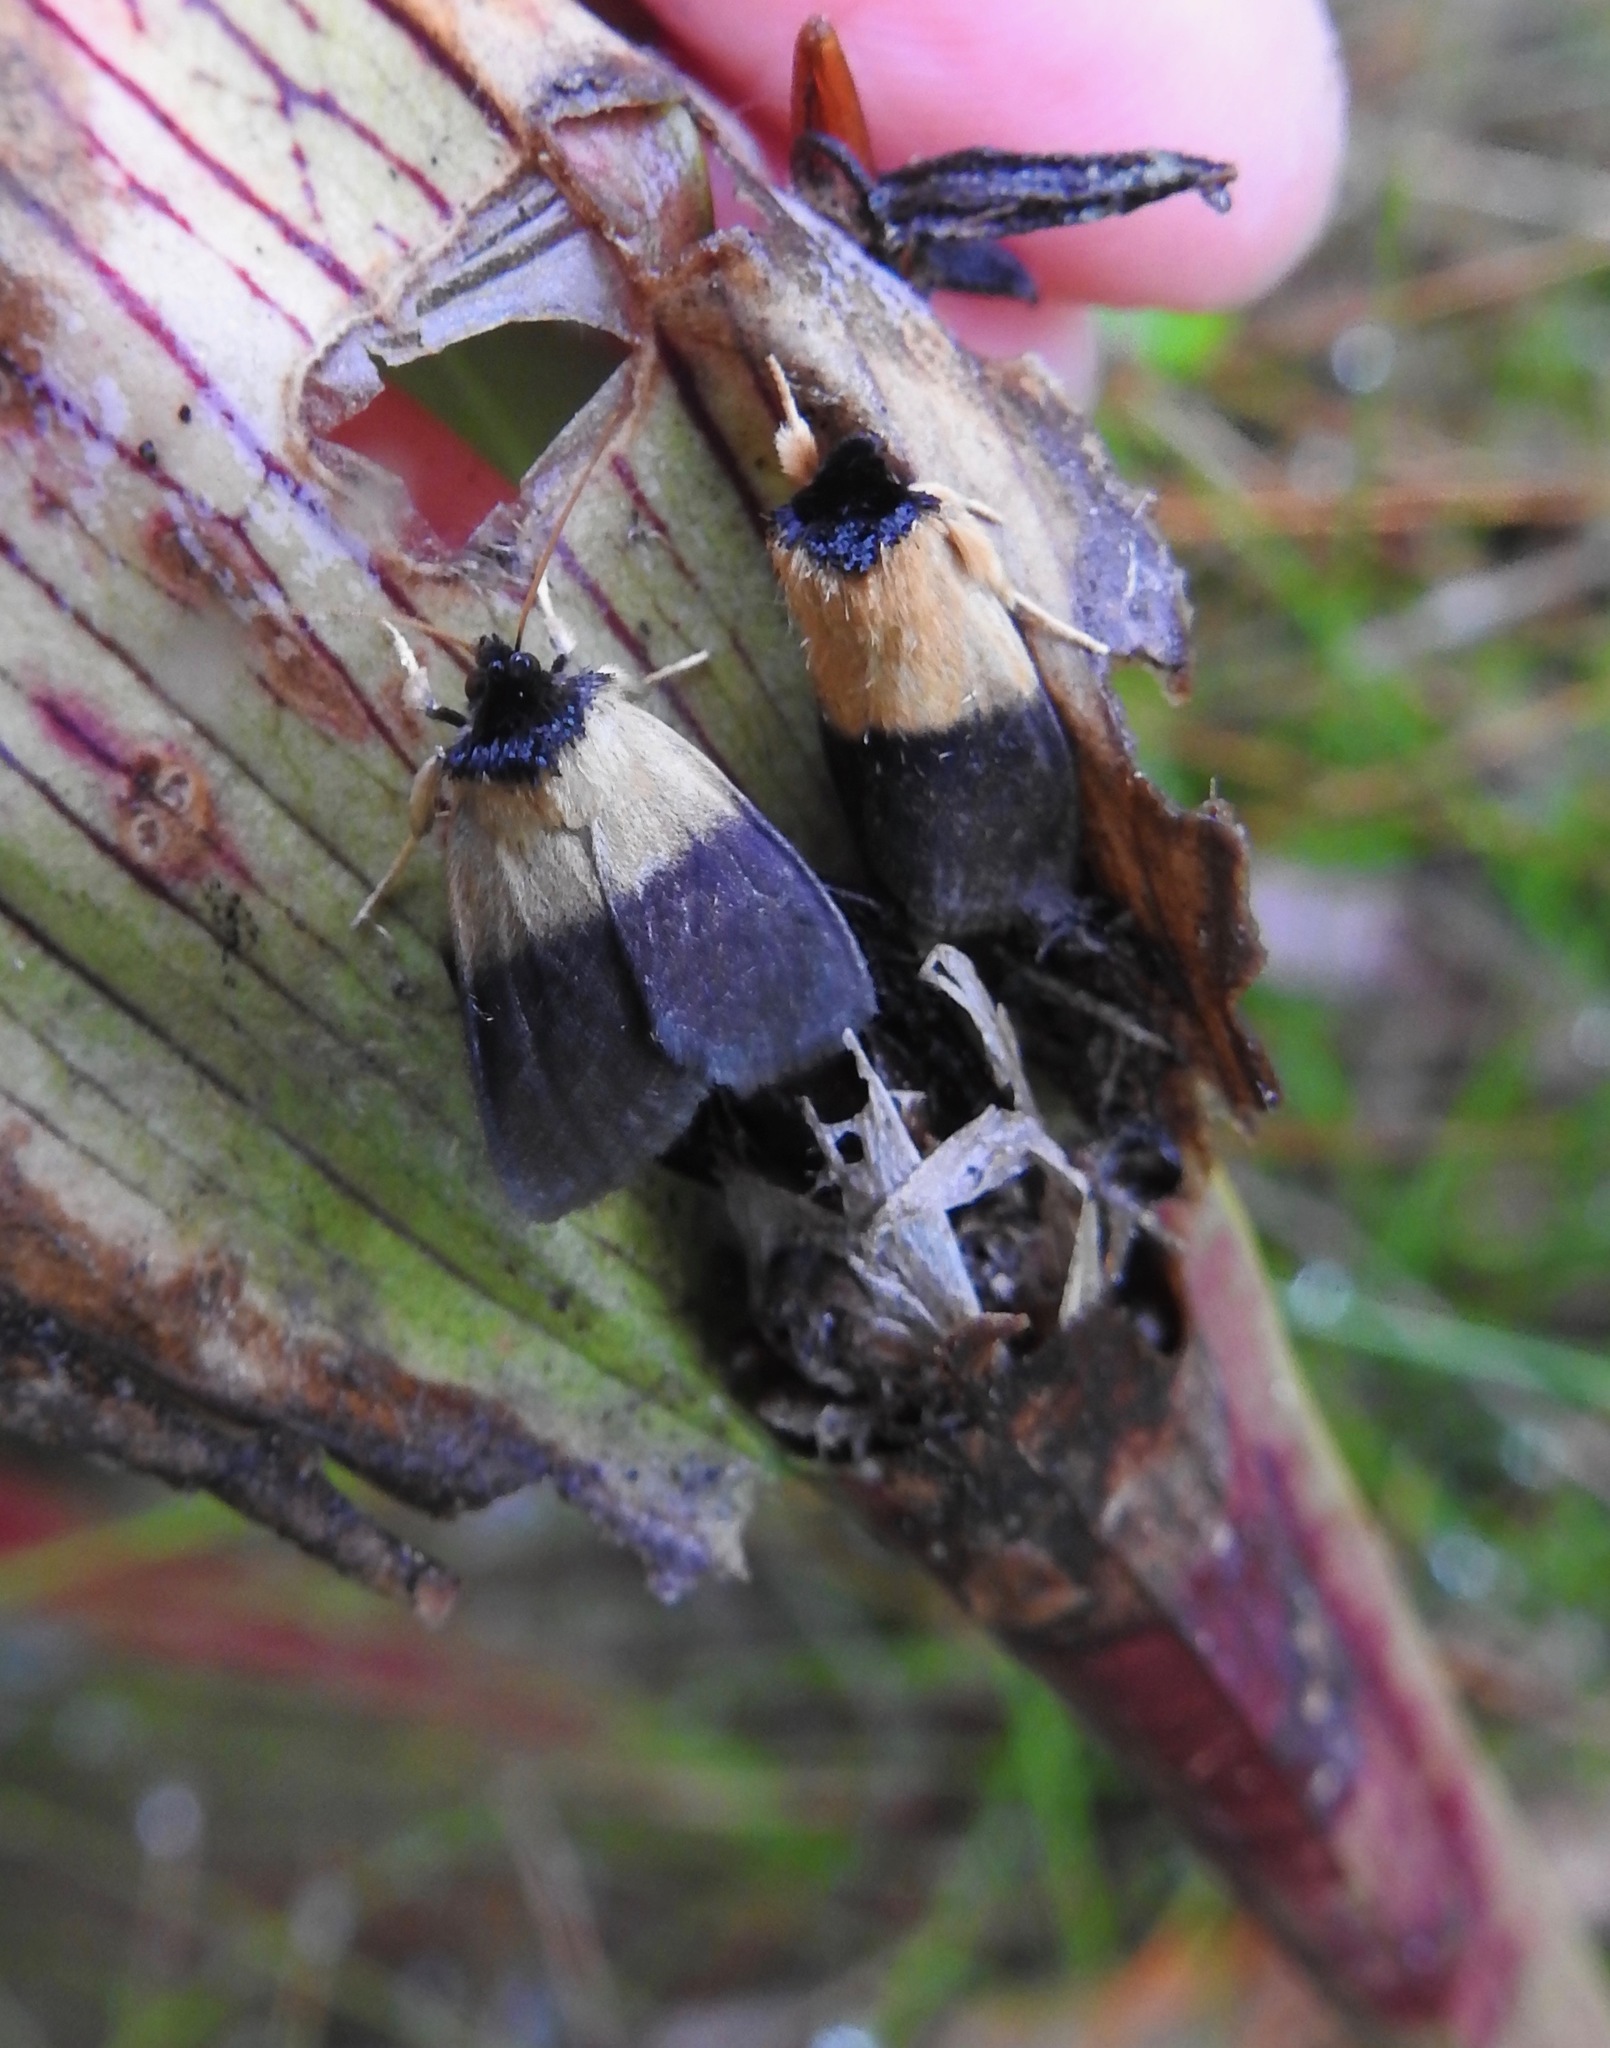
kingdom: Animalia
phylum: Arthropoda
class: Insecta
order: Lepidoptera
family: Noctuidae
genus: Exyra
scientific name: Exyra semicrocea
